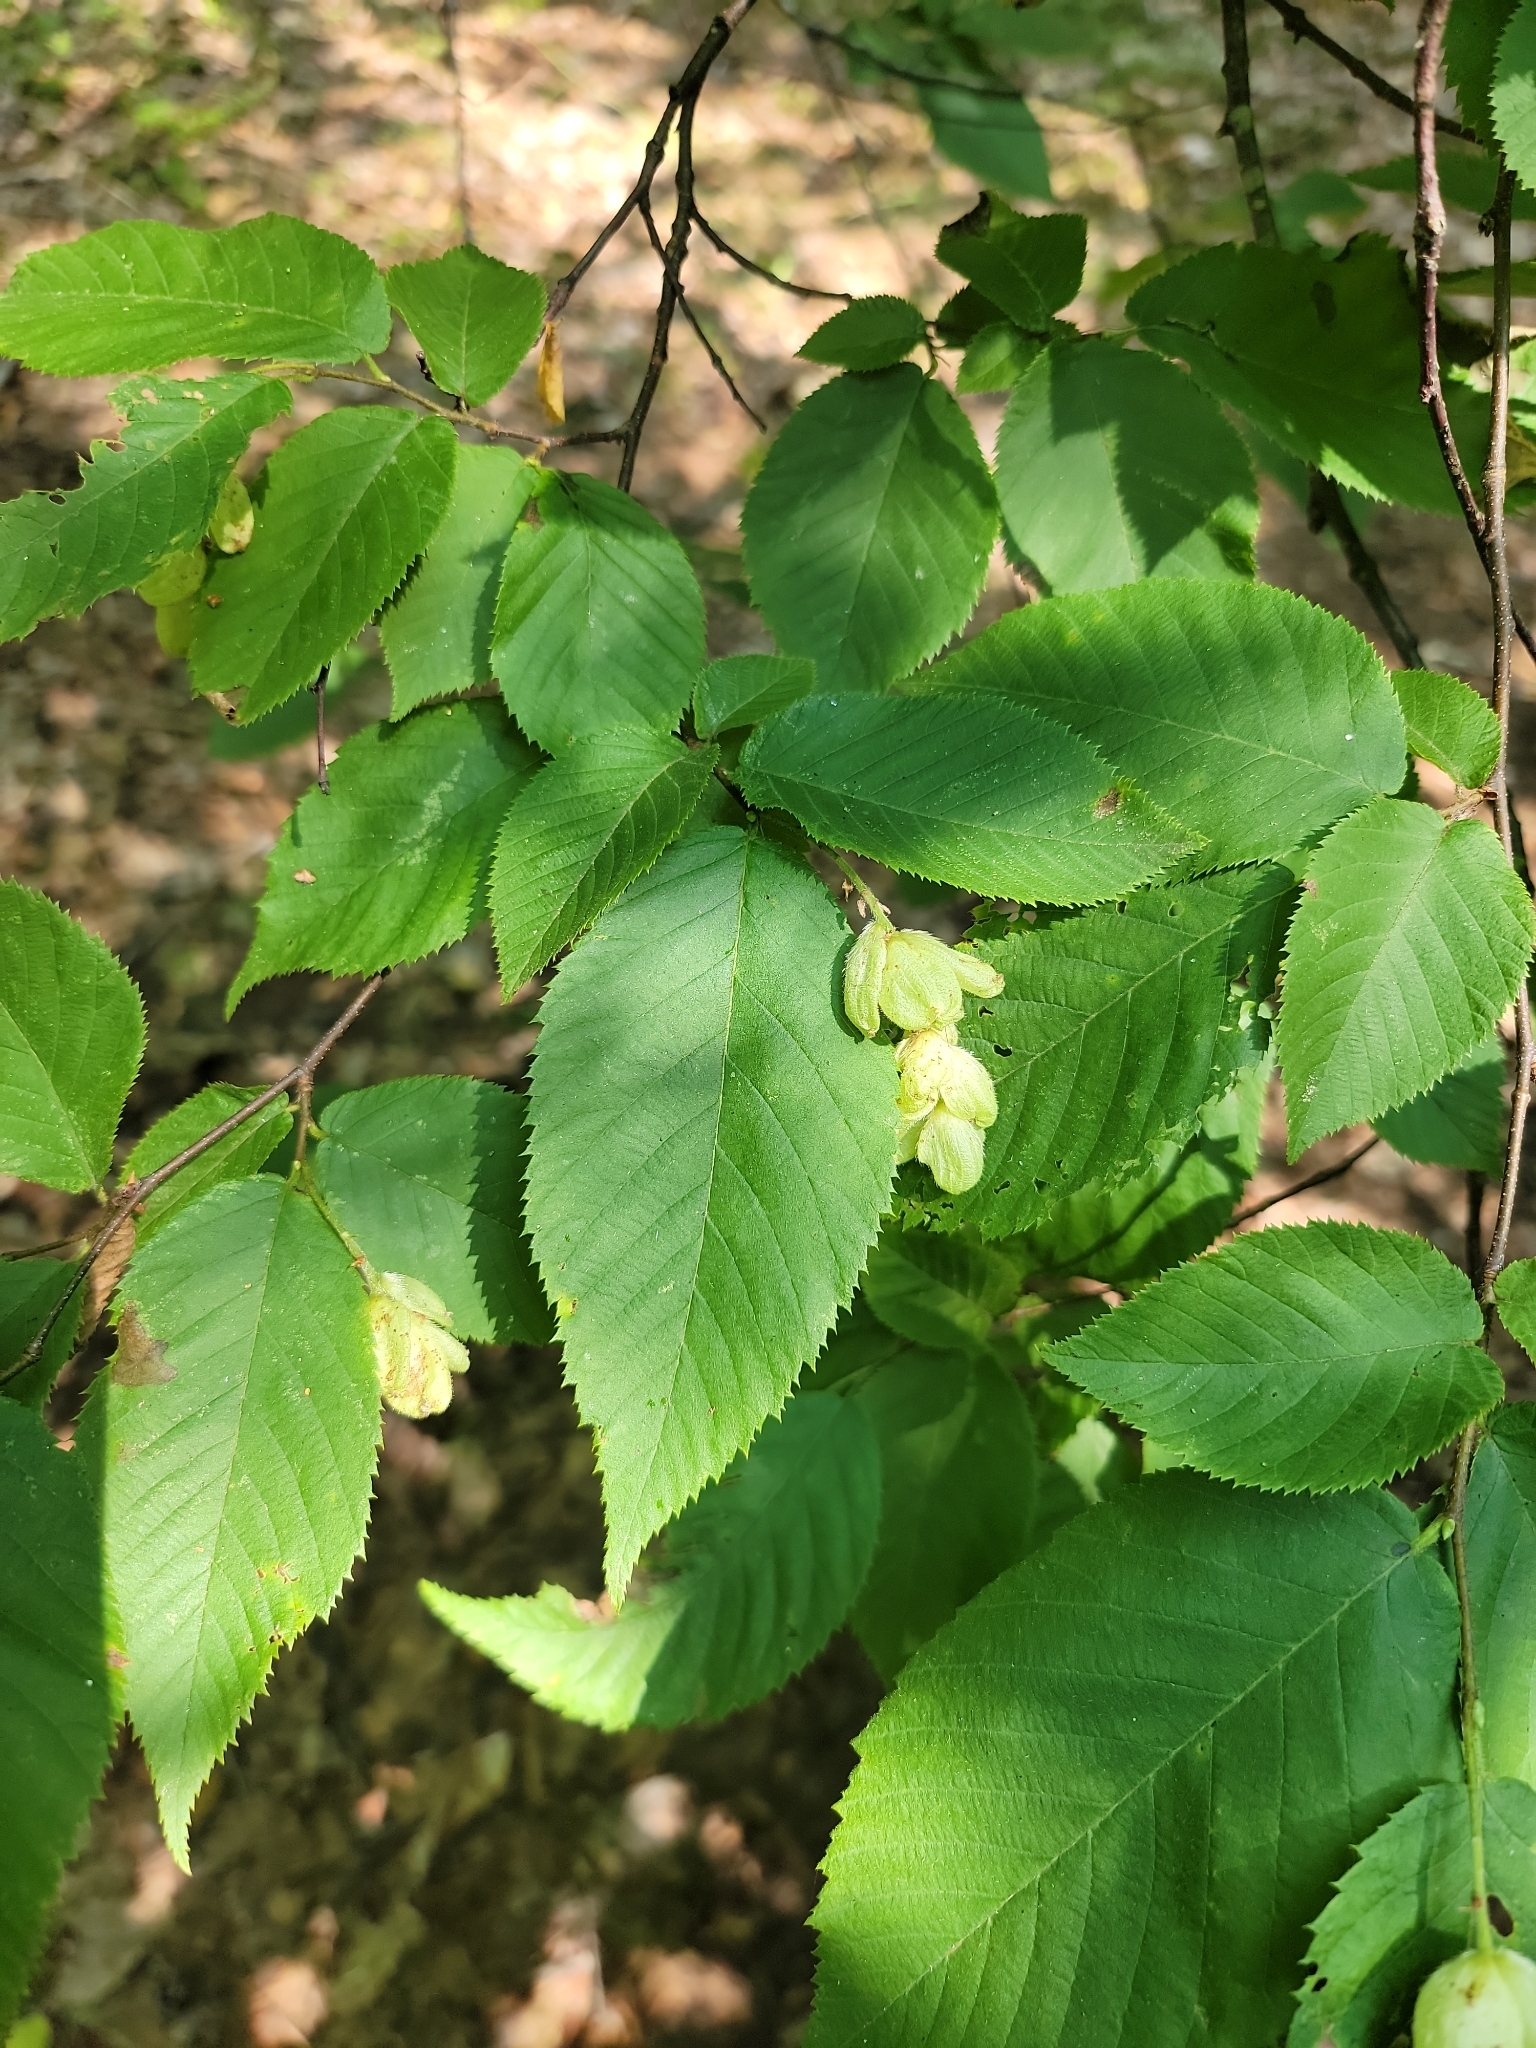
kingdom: Plantae
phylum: Tracheophyta
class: Magnoliopsida
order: Fagales
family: Betulaceae
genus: Ostrya
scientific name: Ostrya virginiana
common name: Ironwood
